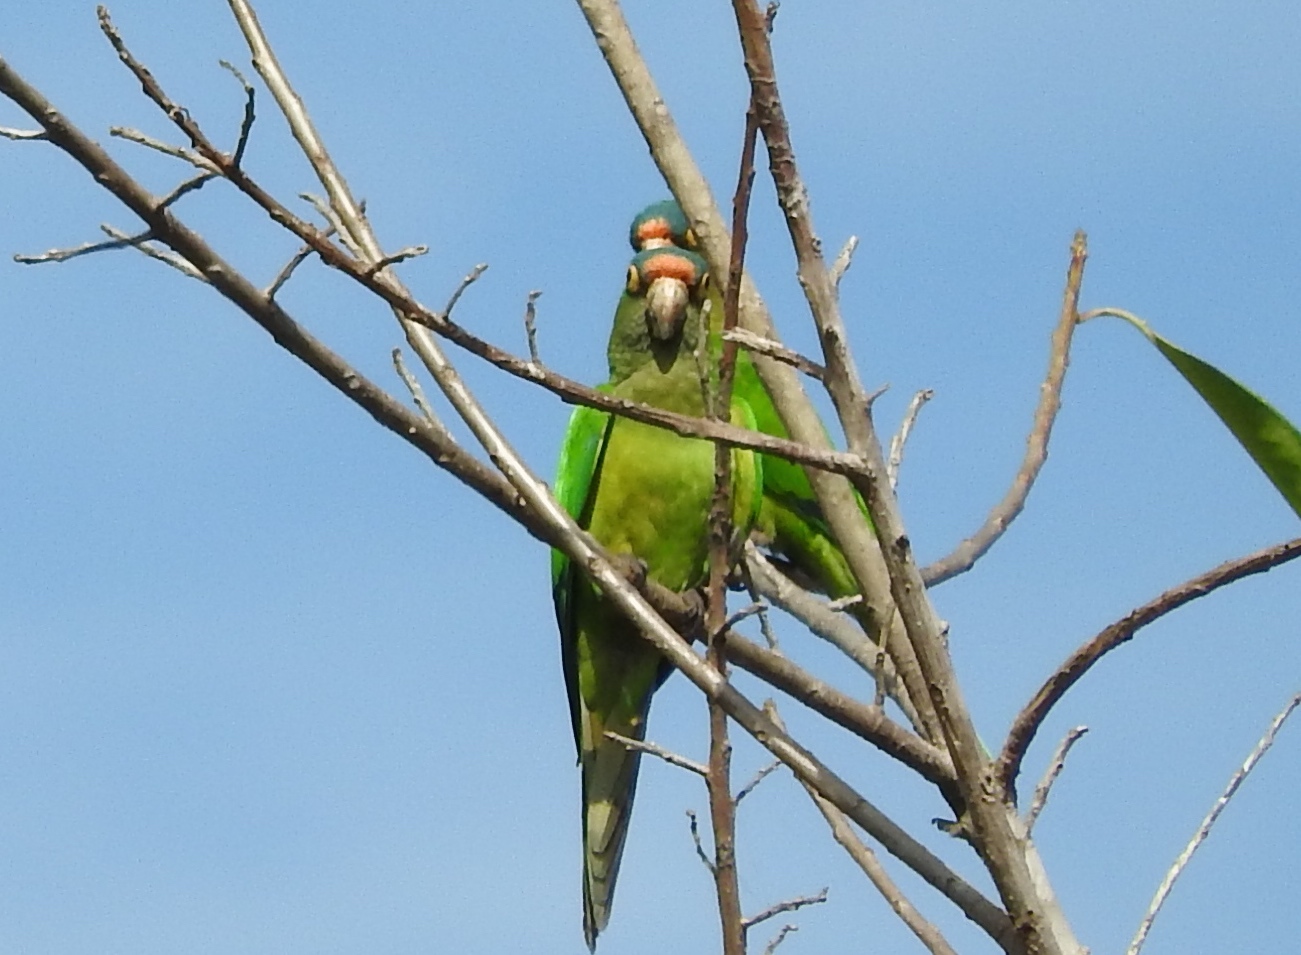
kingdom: Animalia
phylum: Chordata
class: Aves
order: Psittaciformes
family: Psittacidae
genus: Aratinga
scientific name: Aratinga canicularis
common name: Orange-fronted parakeet
